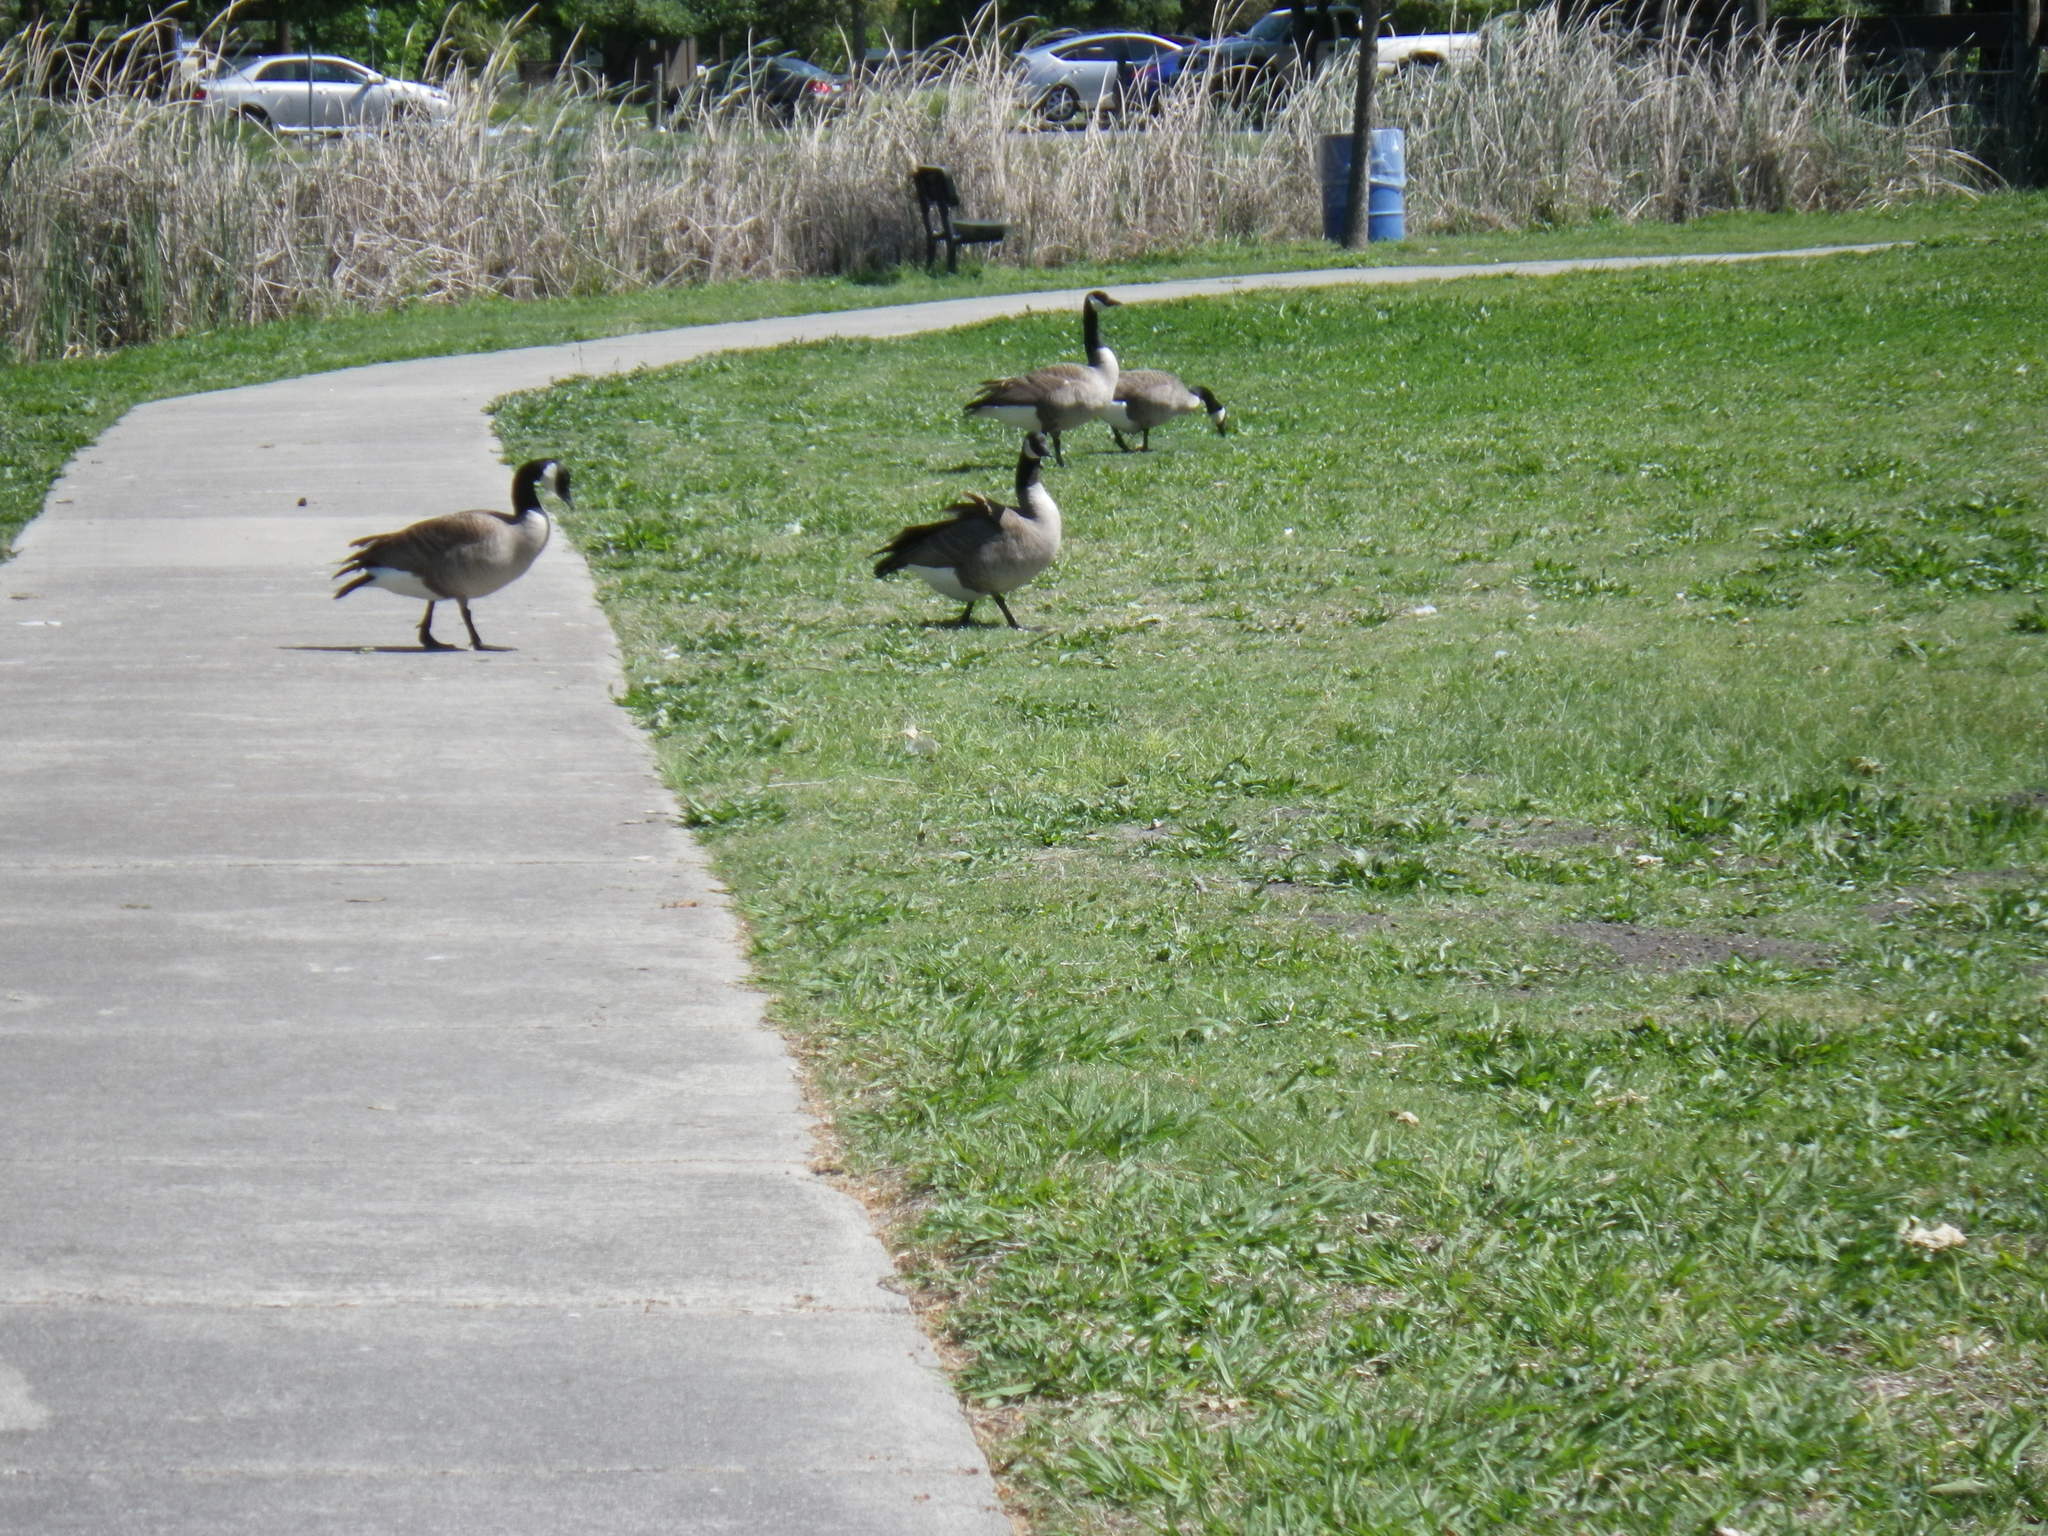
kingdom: Animalia
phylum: Chordata
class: Aves
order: Anseriformes
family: Anatidae
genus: Branta
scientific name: Branta canadensis
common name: Canada goose
